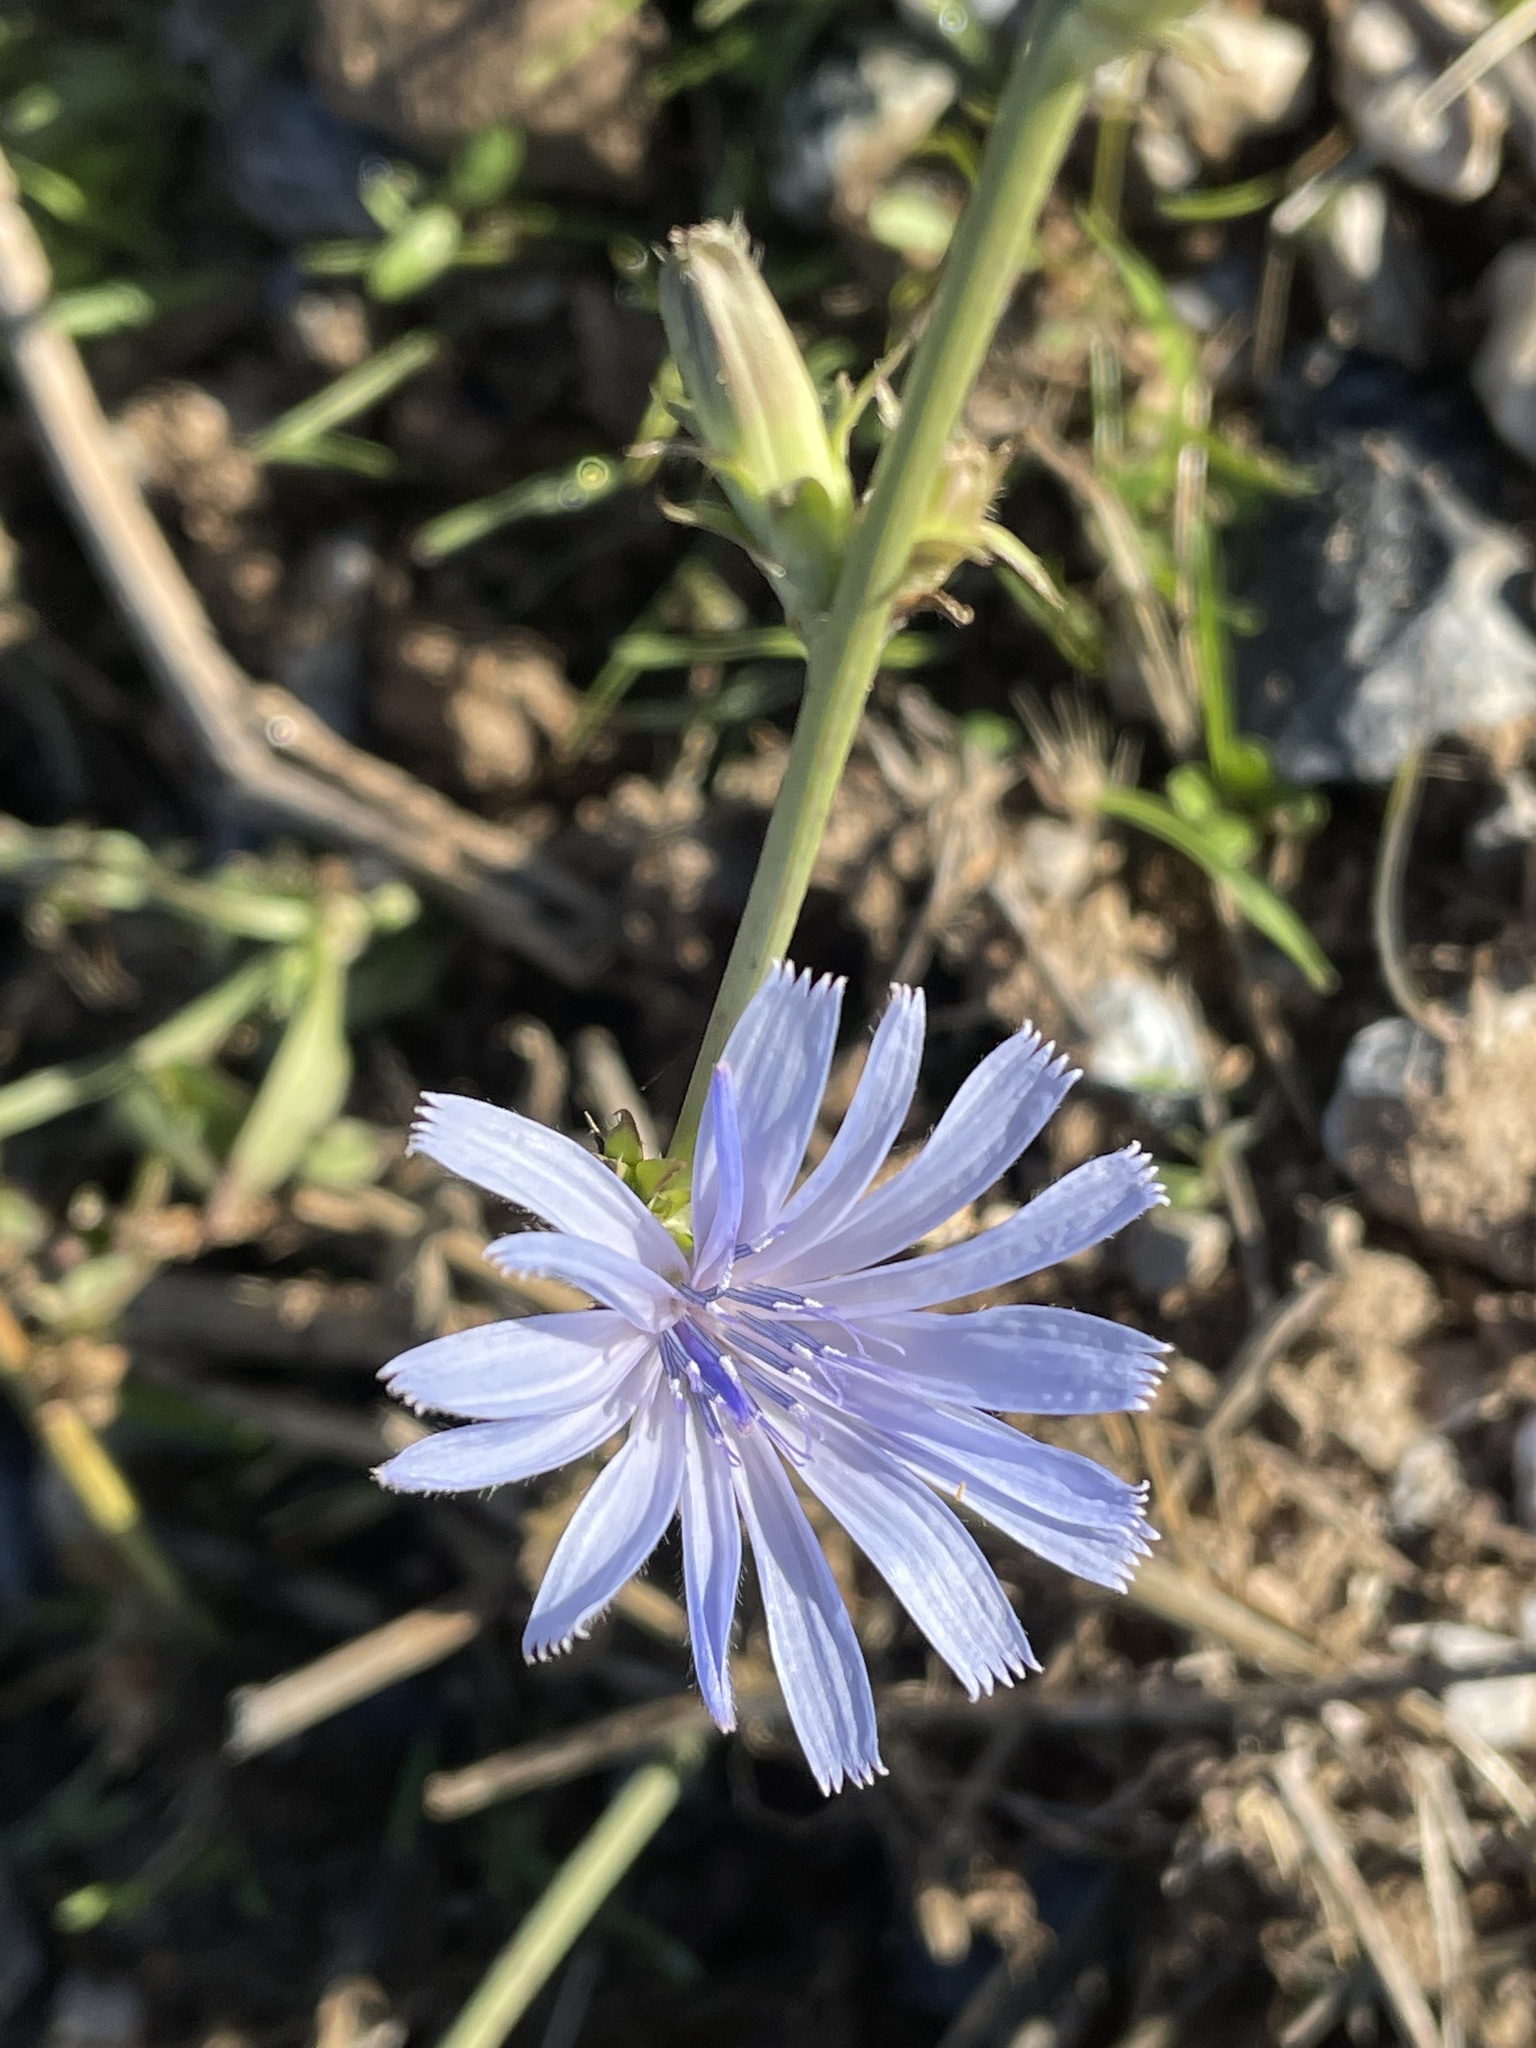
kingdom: Plantae
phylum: Tracheophyta
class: Magnoliopsida
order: Asterales
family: Asteraceae
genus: Cichorium
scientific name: Cichorium intybus
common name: Chicory
